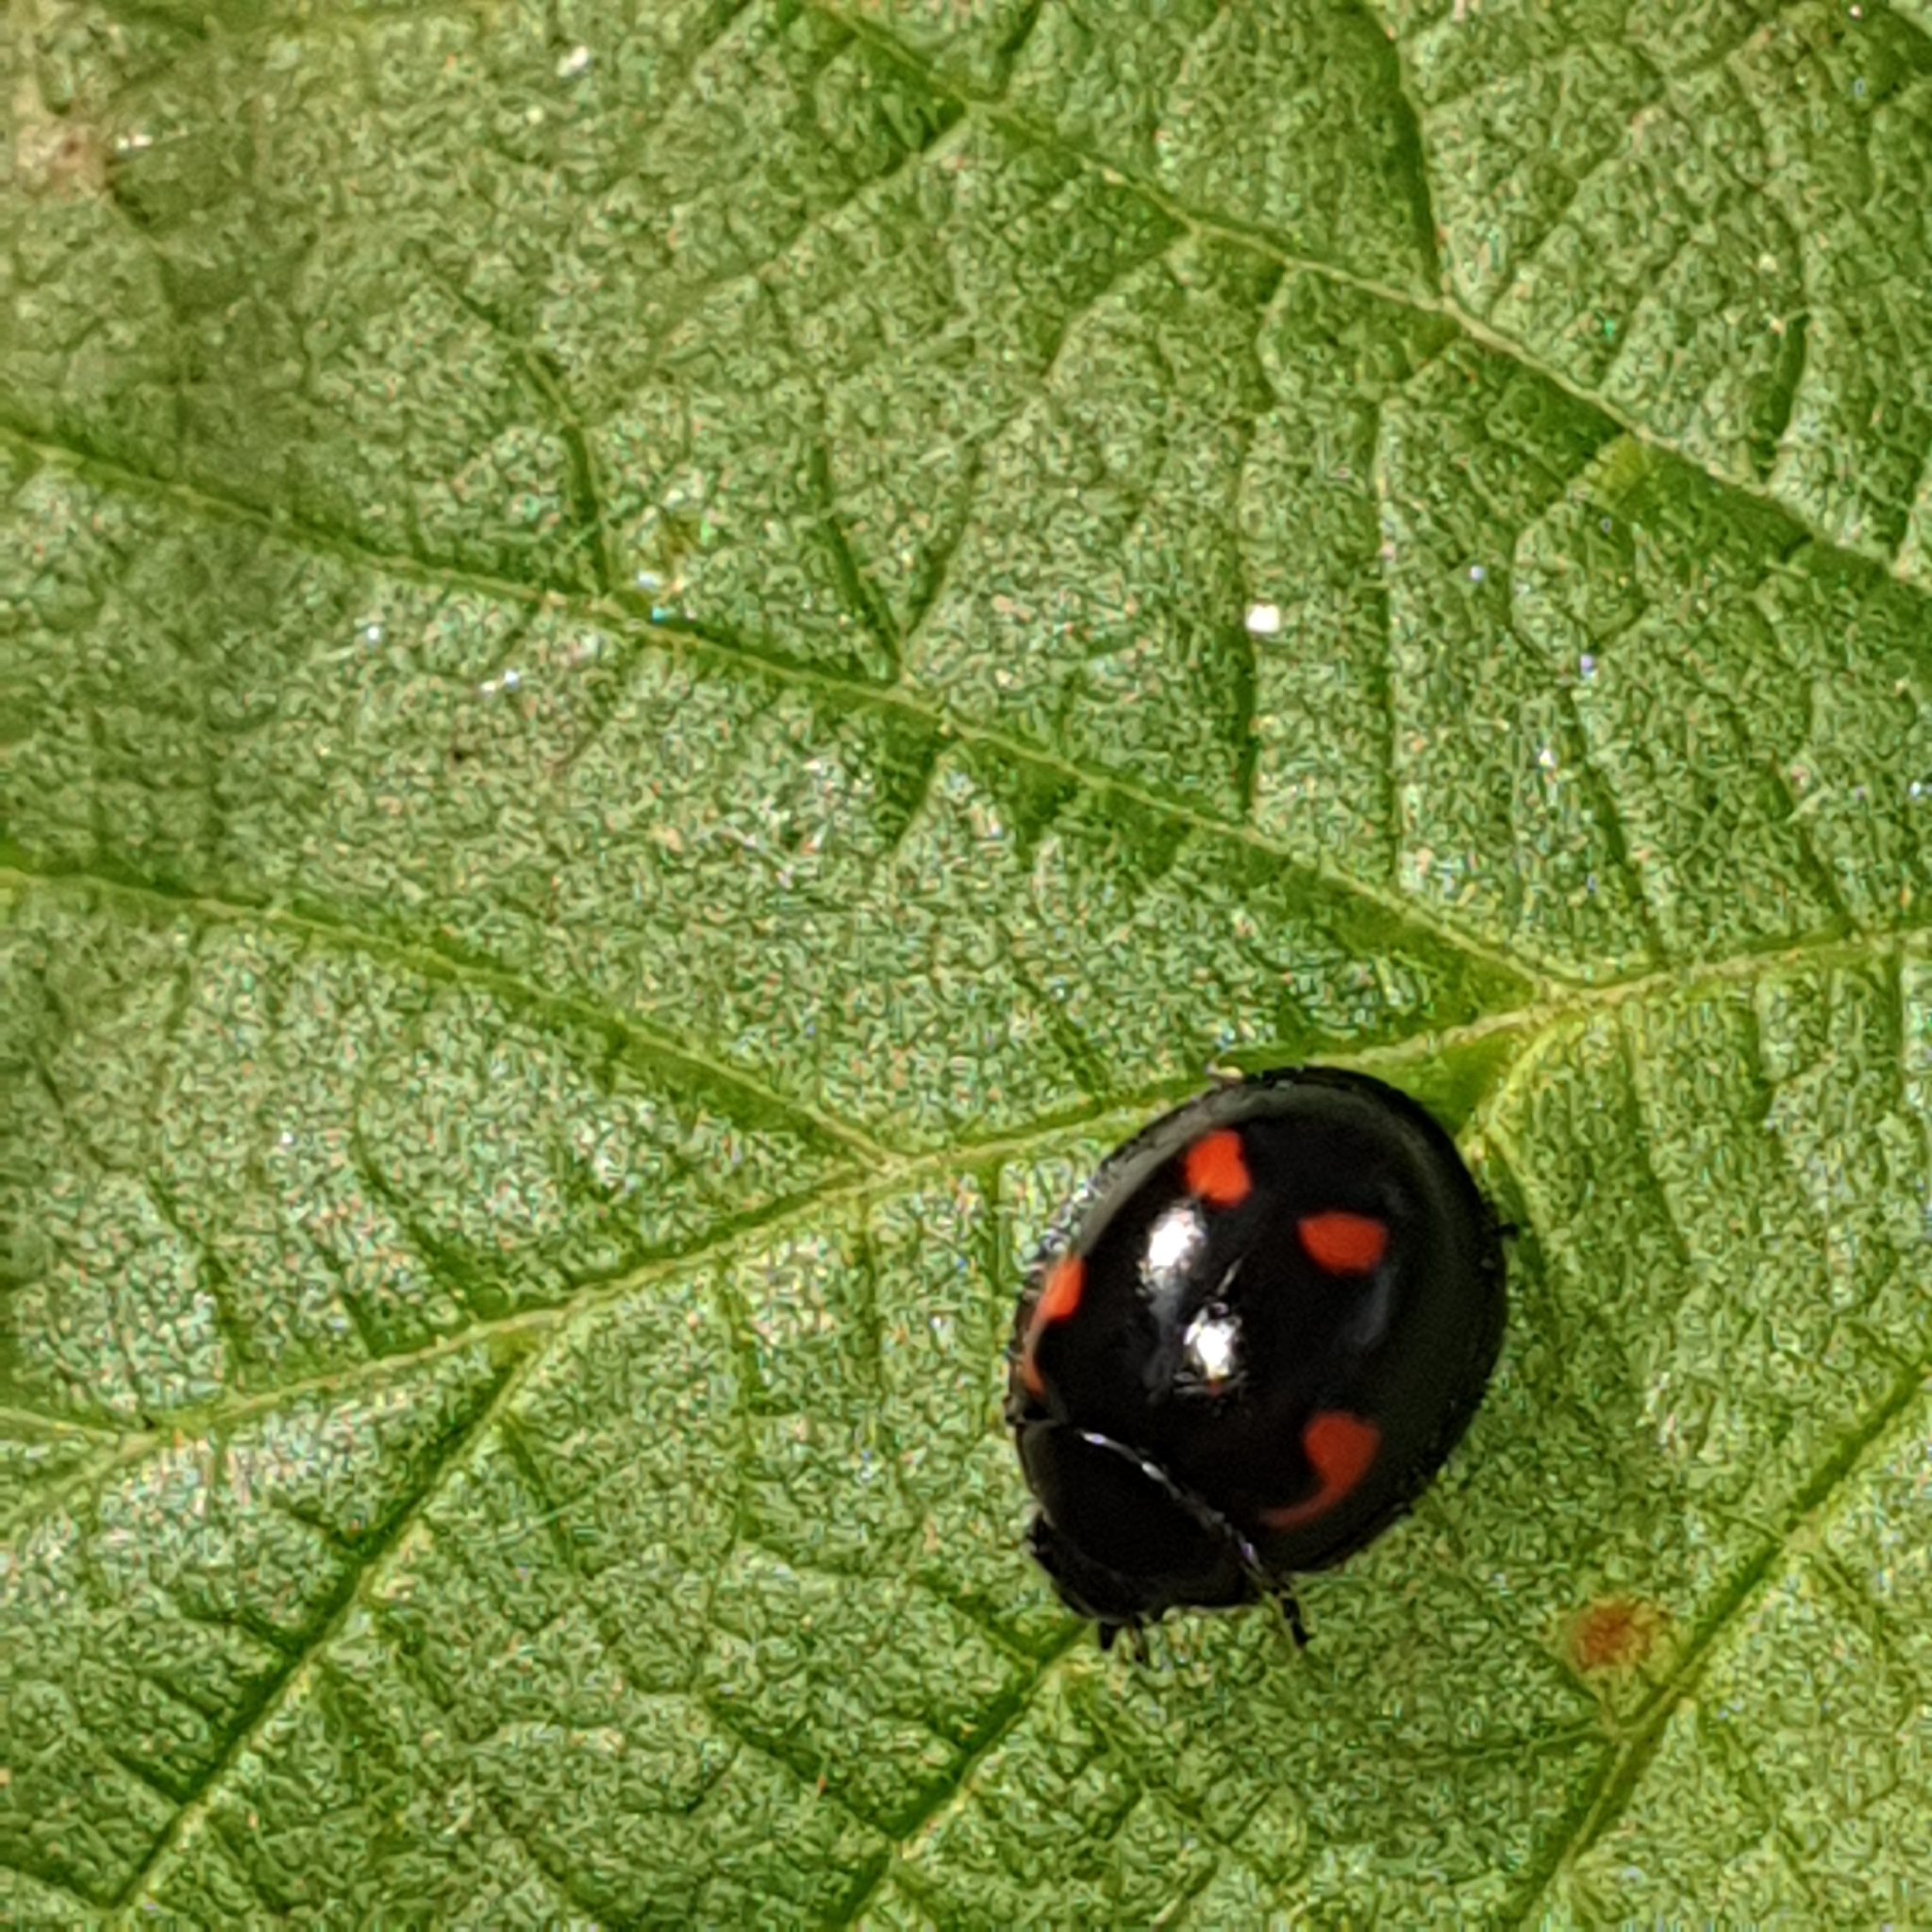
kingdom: Animalia
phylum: Arthropoda
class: Insecta
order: Coleoptera
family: Coccinellidae
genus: Brumus
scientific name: Brumus quadripustulatus
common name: Ladybird beetle
